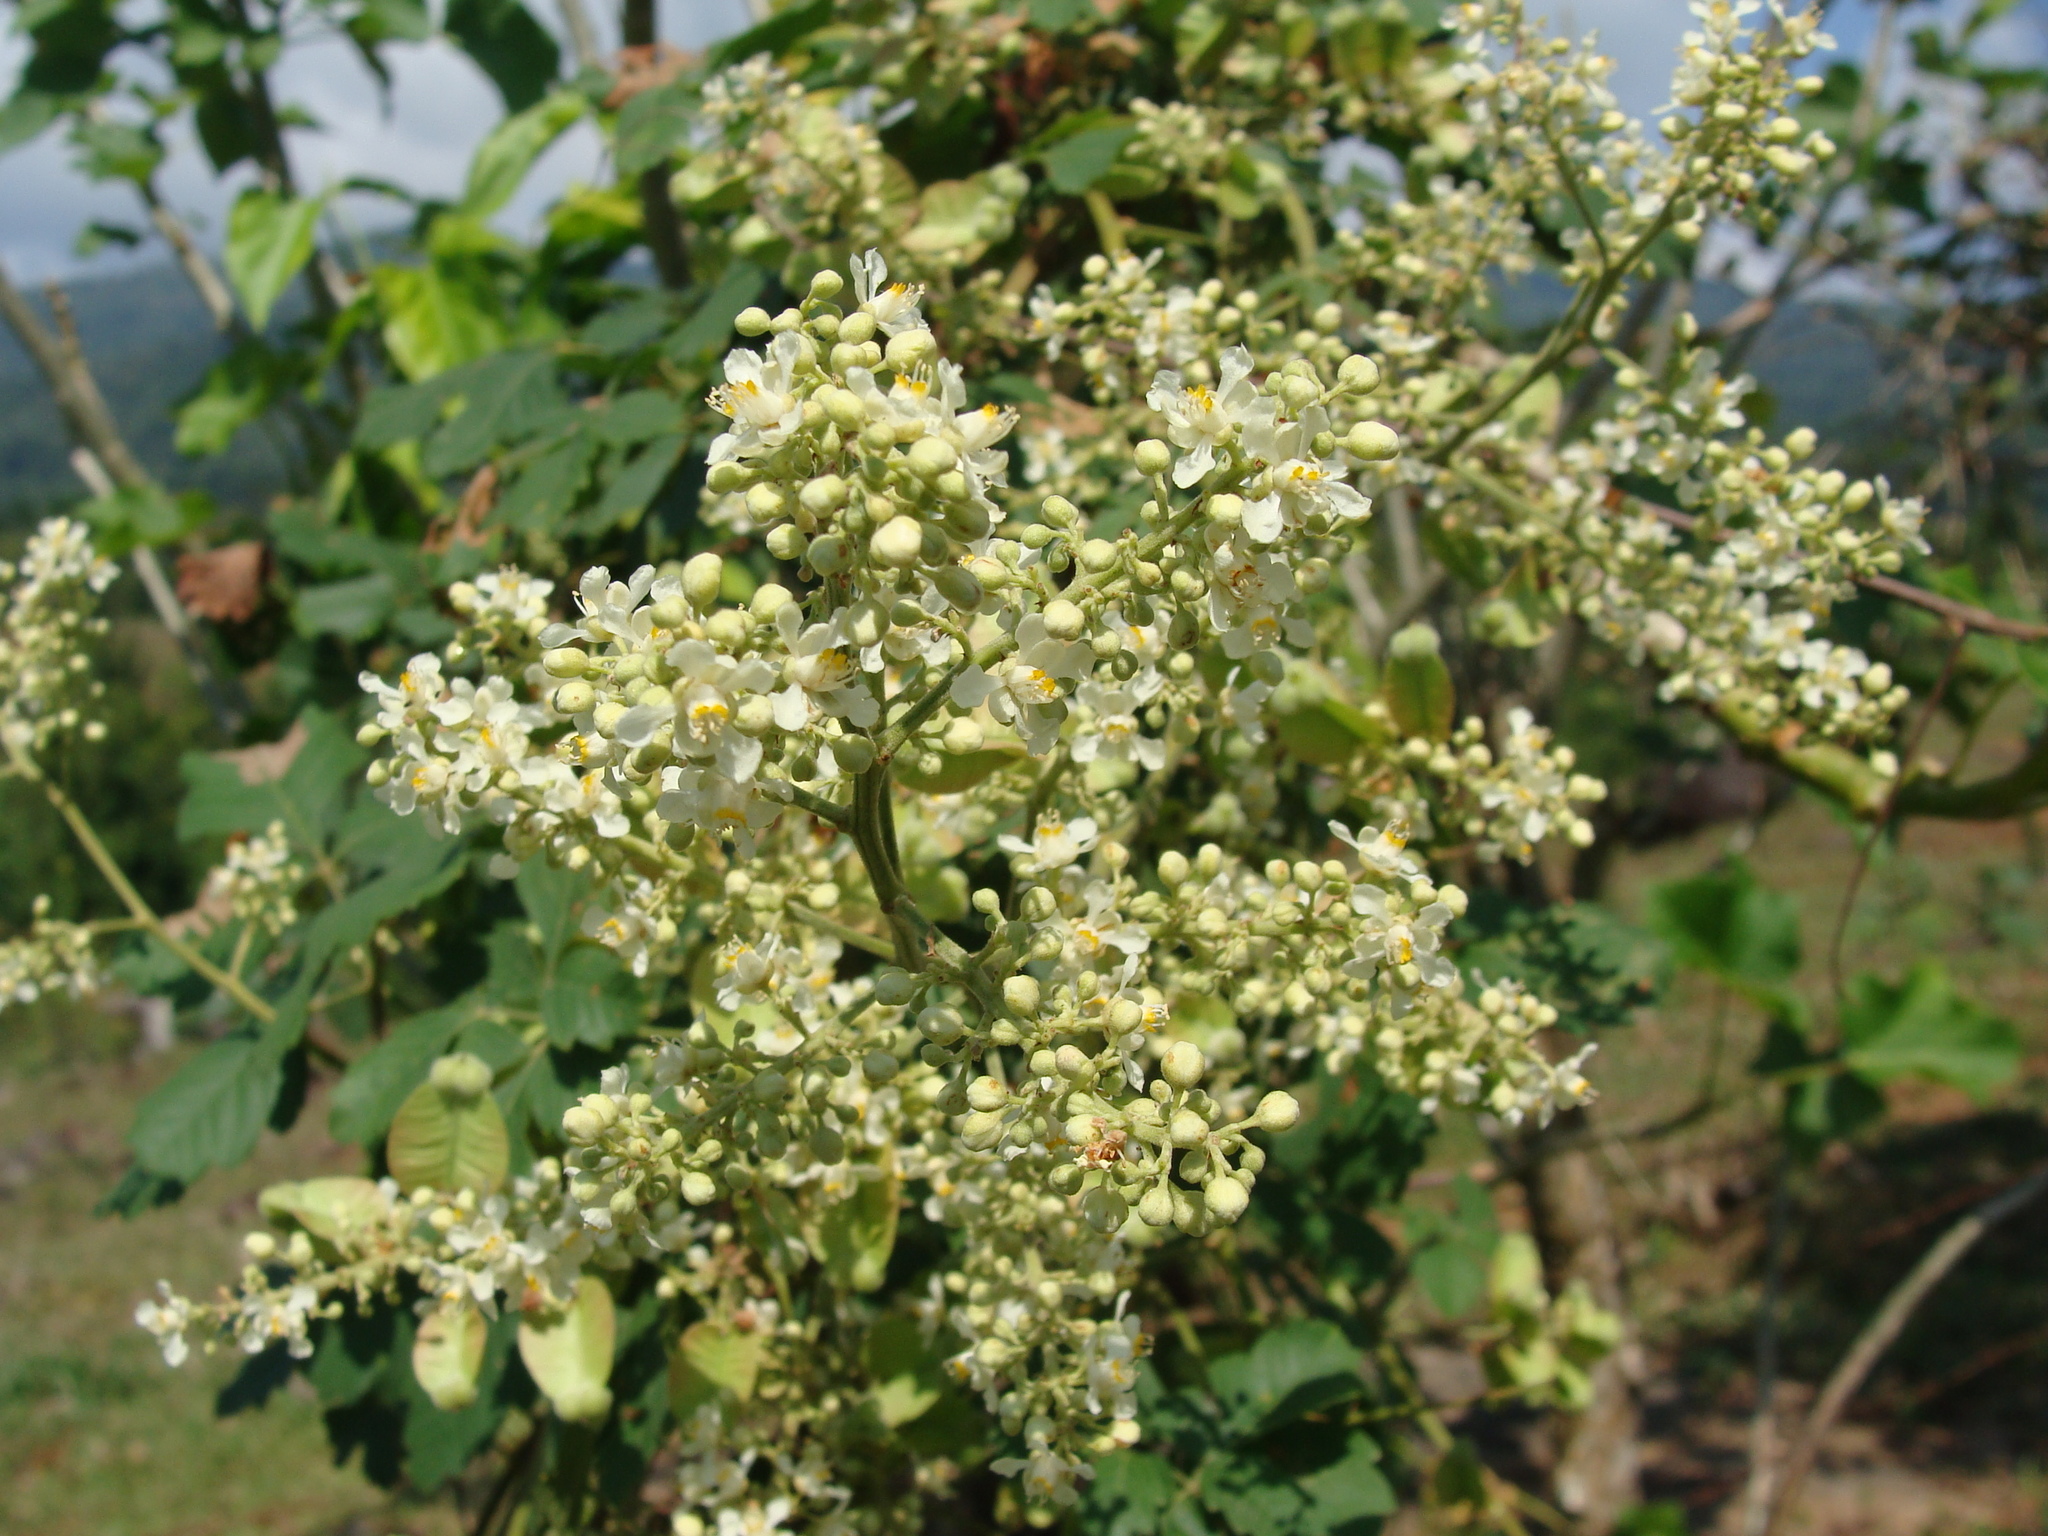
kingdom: Plantae
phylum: Tracheophyta
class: Magnoliopsida
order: Sapindales
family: Sapindaceae
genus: Serjania
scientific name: Serjania triquetra
